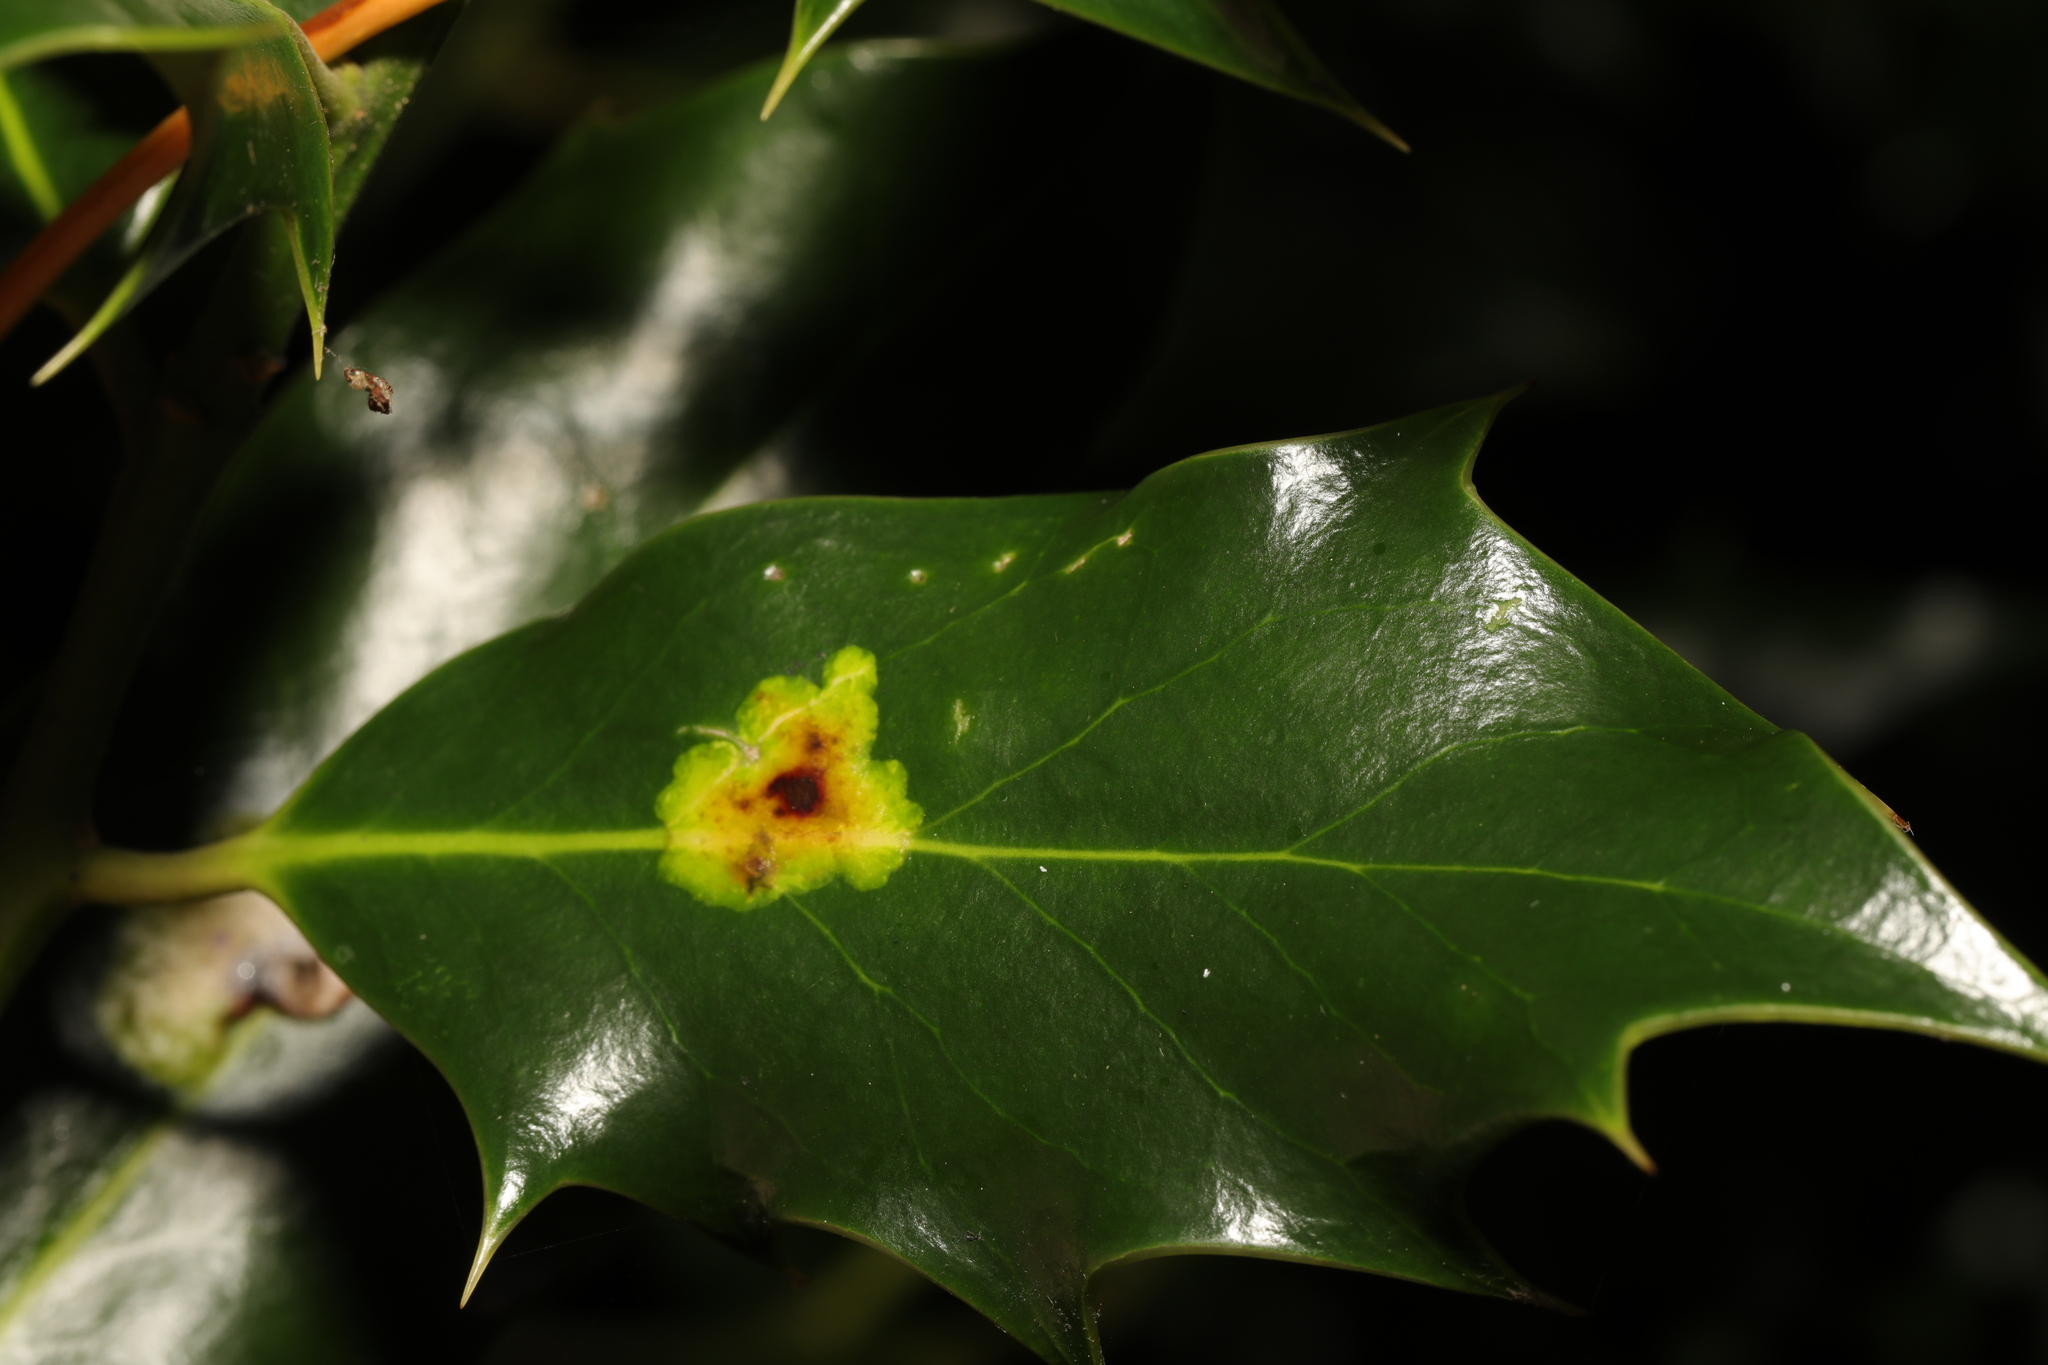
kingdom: Animalia
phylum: Arthropoda
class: Insecta
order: Diptera
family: Agromyzidae
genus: Phytomyza
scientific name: Phytomyza ilicis
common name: Holly leafminer
